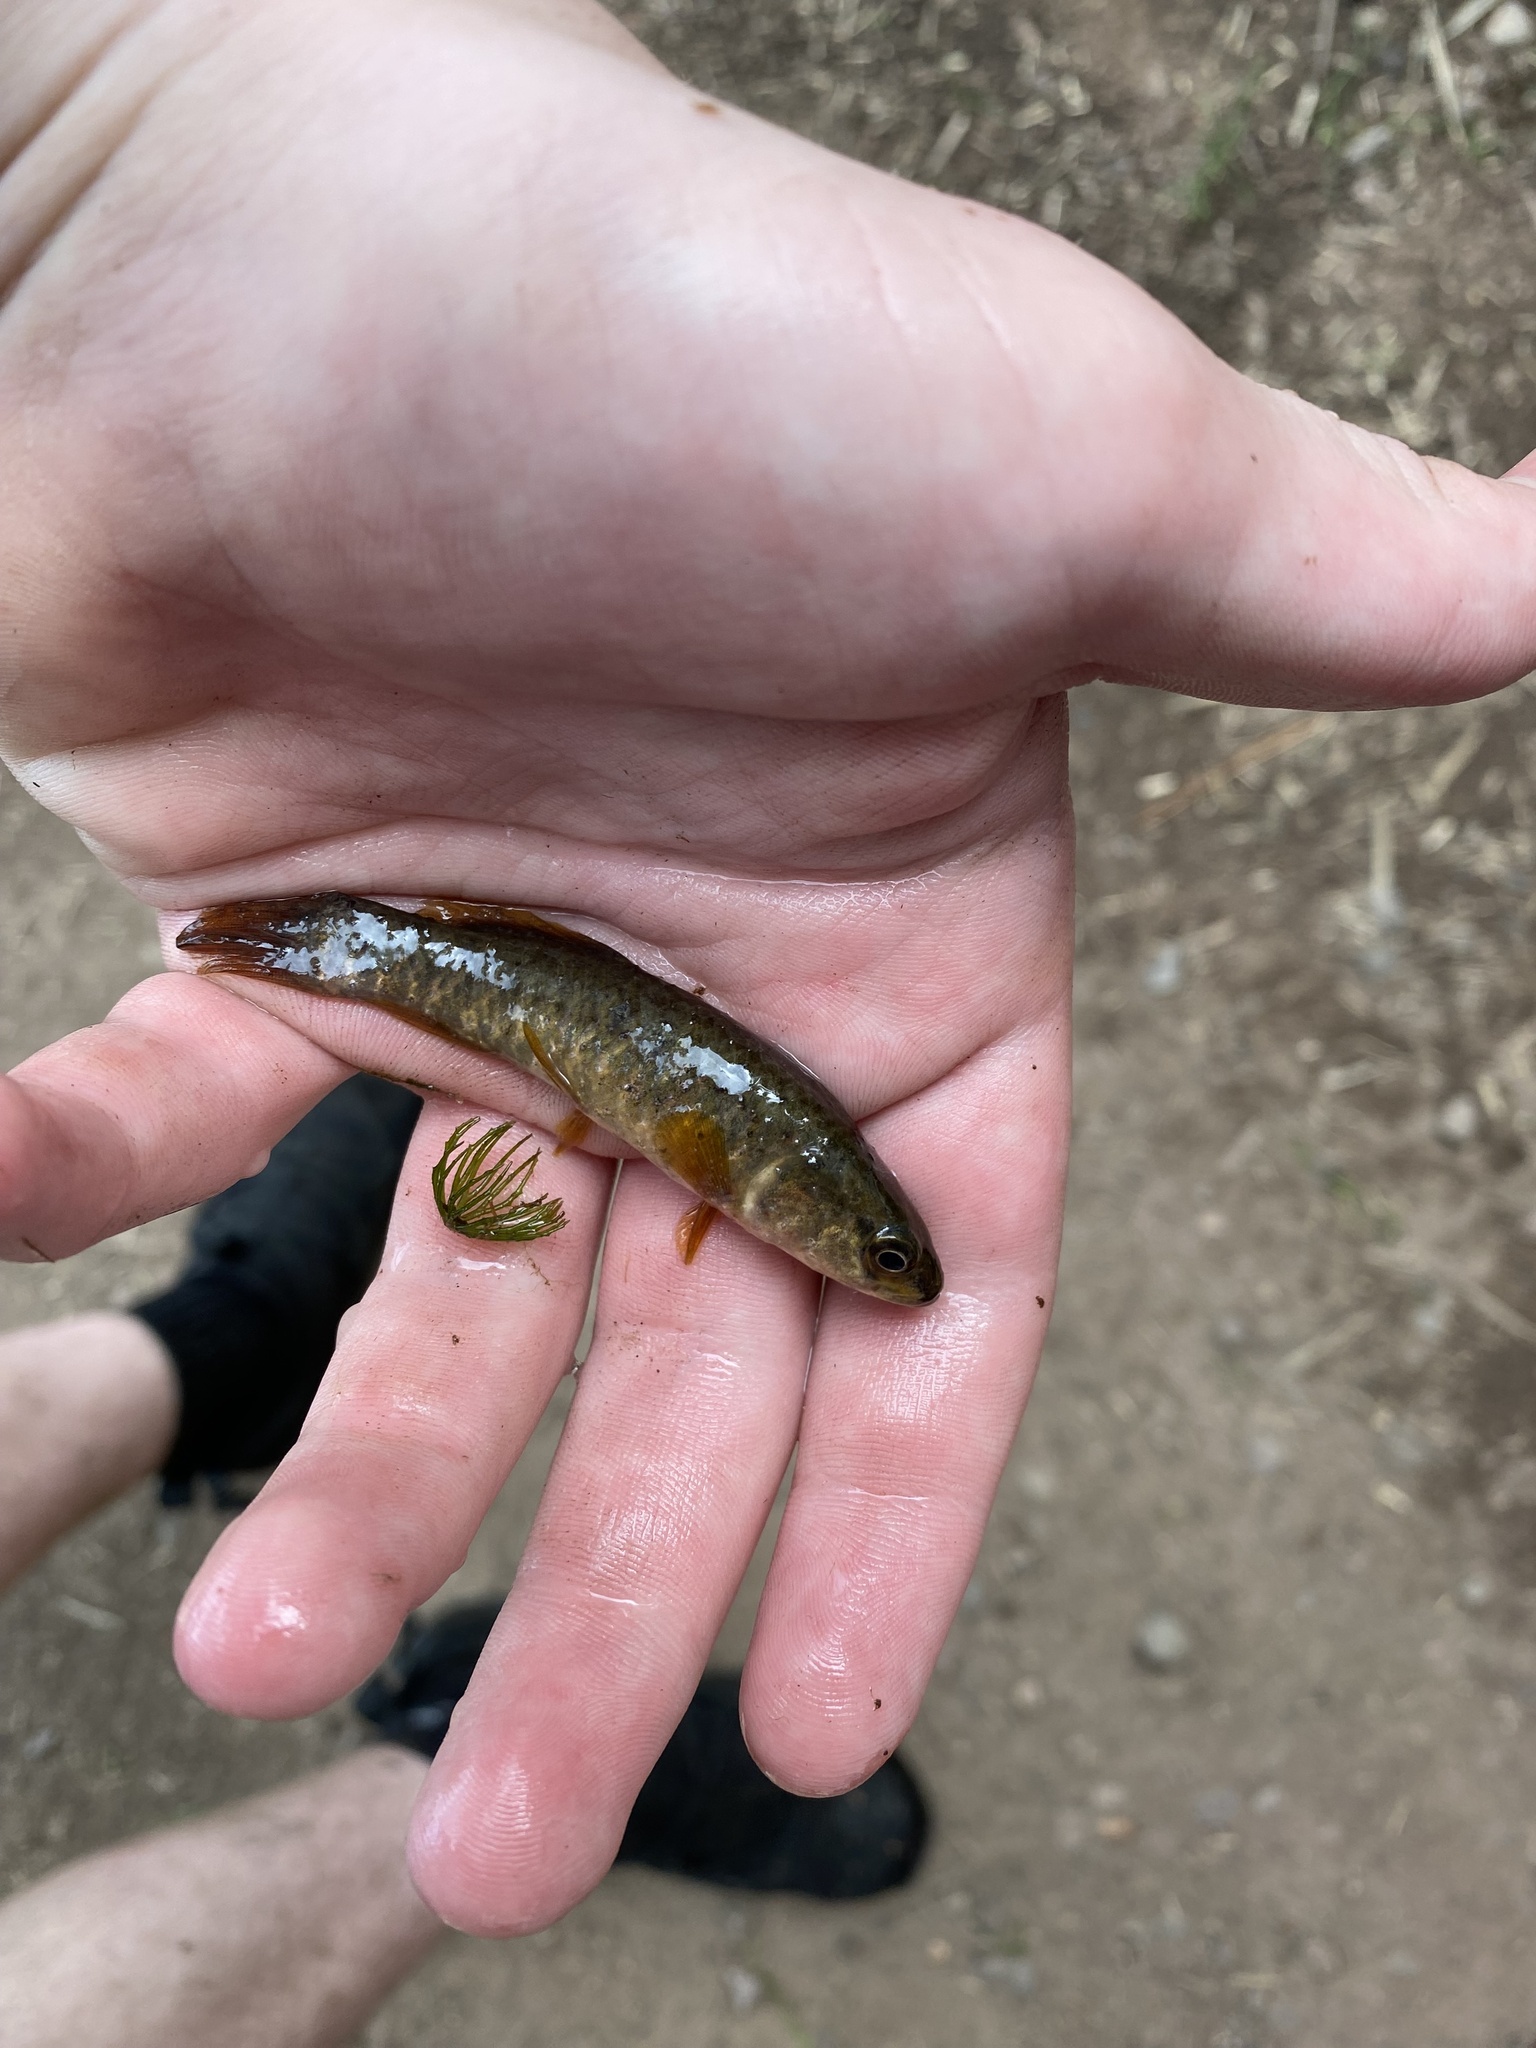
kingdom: Animalia
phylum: Chordata
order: Esociformes
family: Umbridae
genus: Umbra
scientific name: Umbra limi
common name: Central mudminnow
